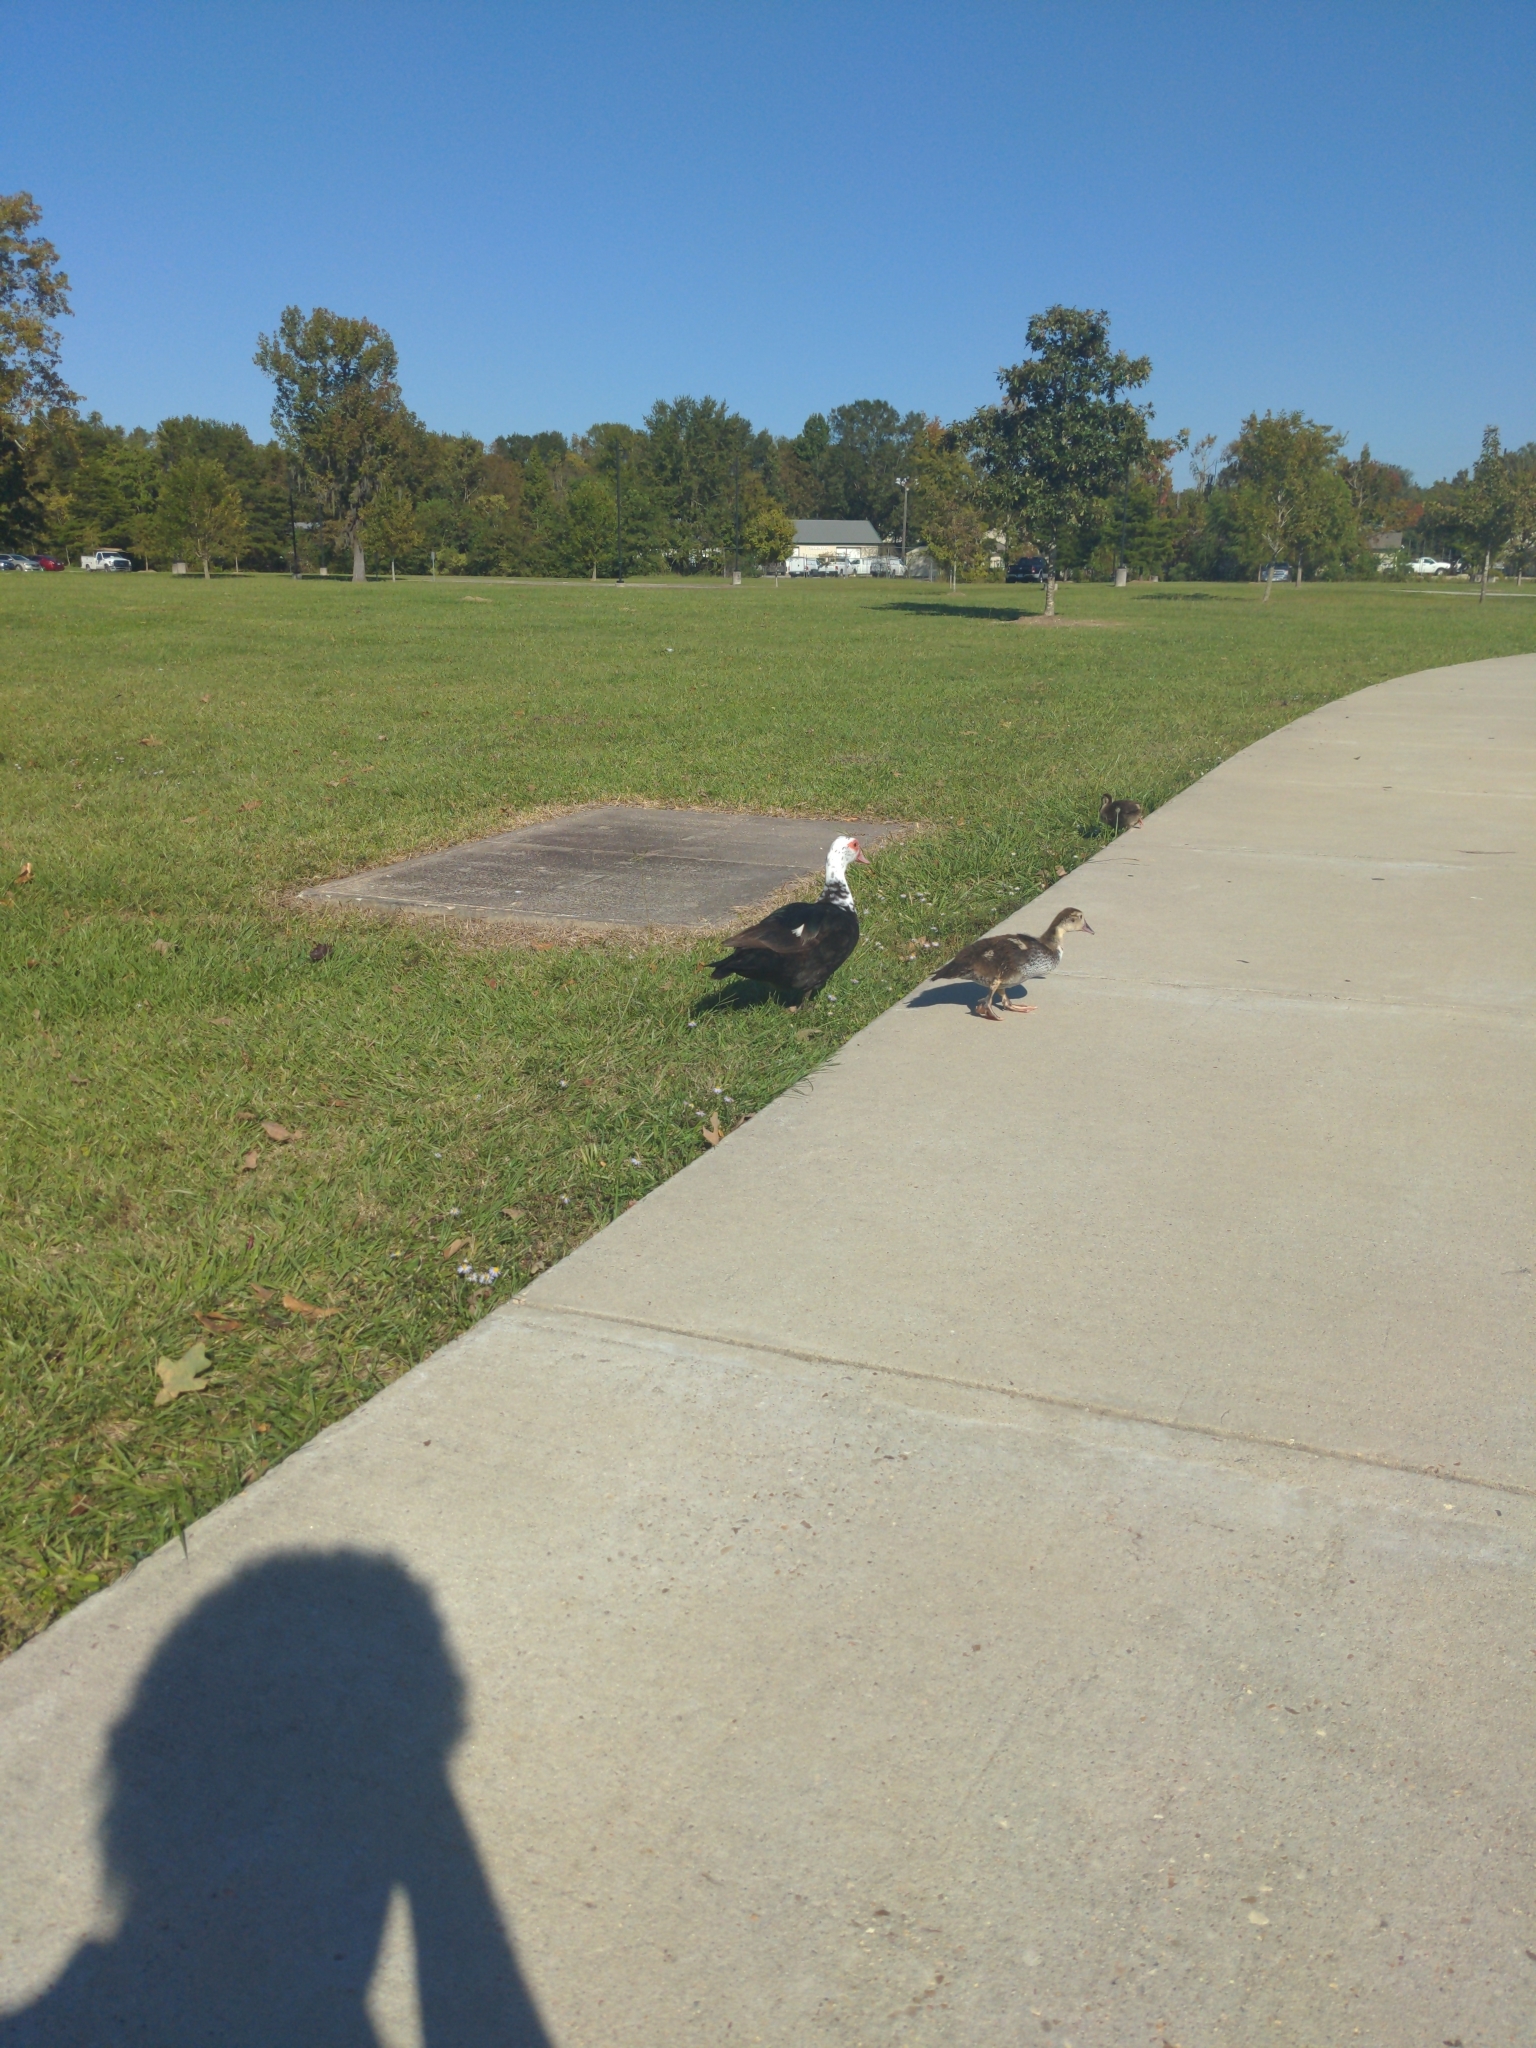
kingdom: Animalia
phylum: Chordata
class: Aves
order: Anseriformes
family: Anatidae
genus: Cairina
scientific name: Cairina moschata
